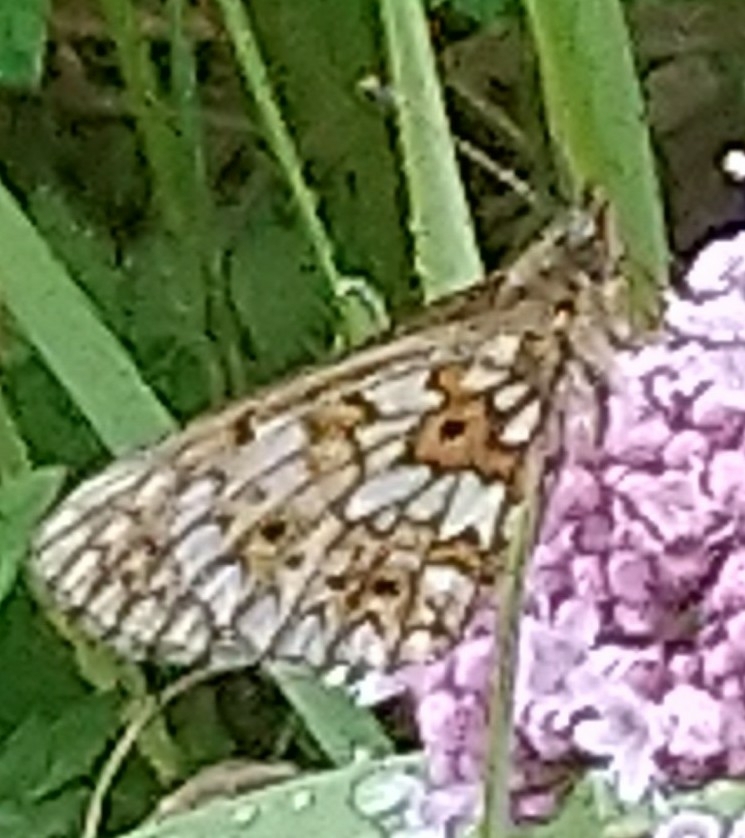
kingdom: Animalia
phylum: Arthropoda
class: Insecta
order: Lepidoptera
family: Nymphalidae
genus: Boloria
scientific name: Boloria selene
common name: Small pearl-bordered fritillary
